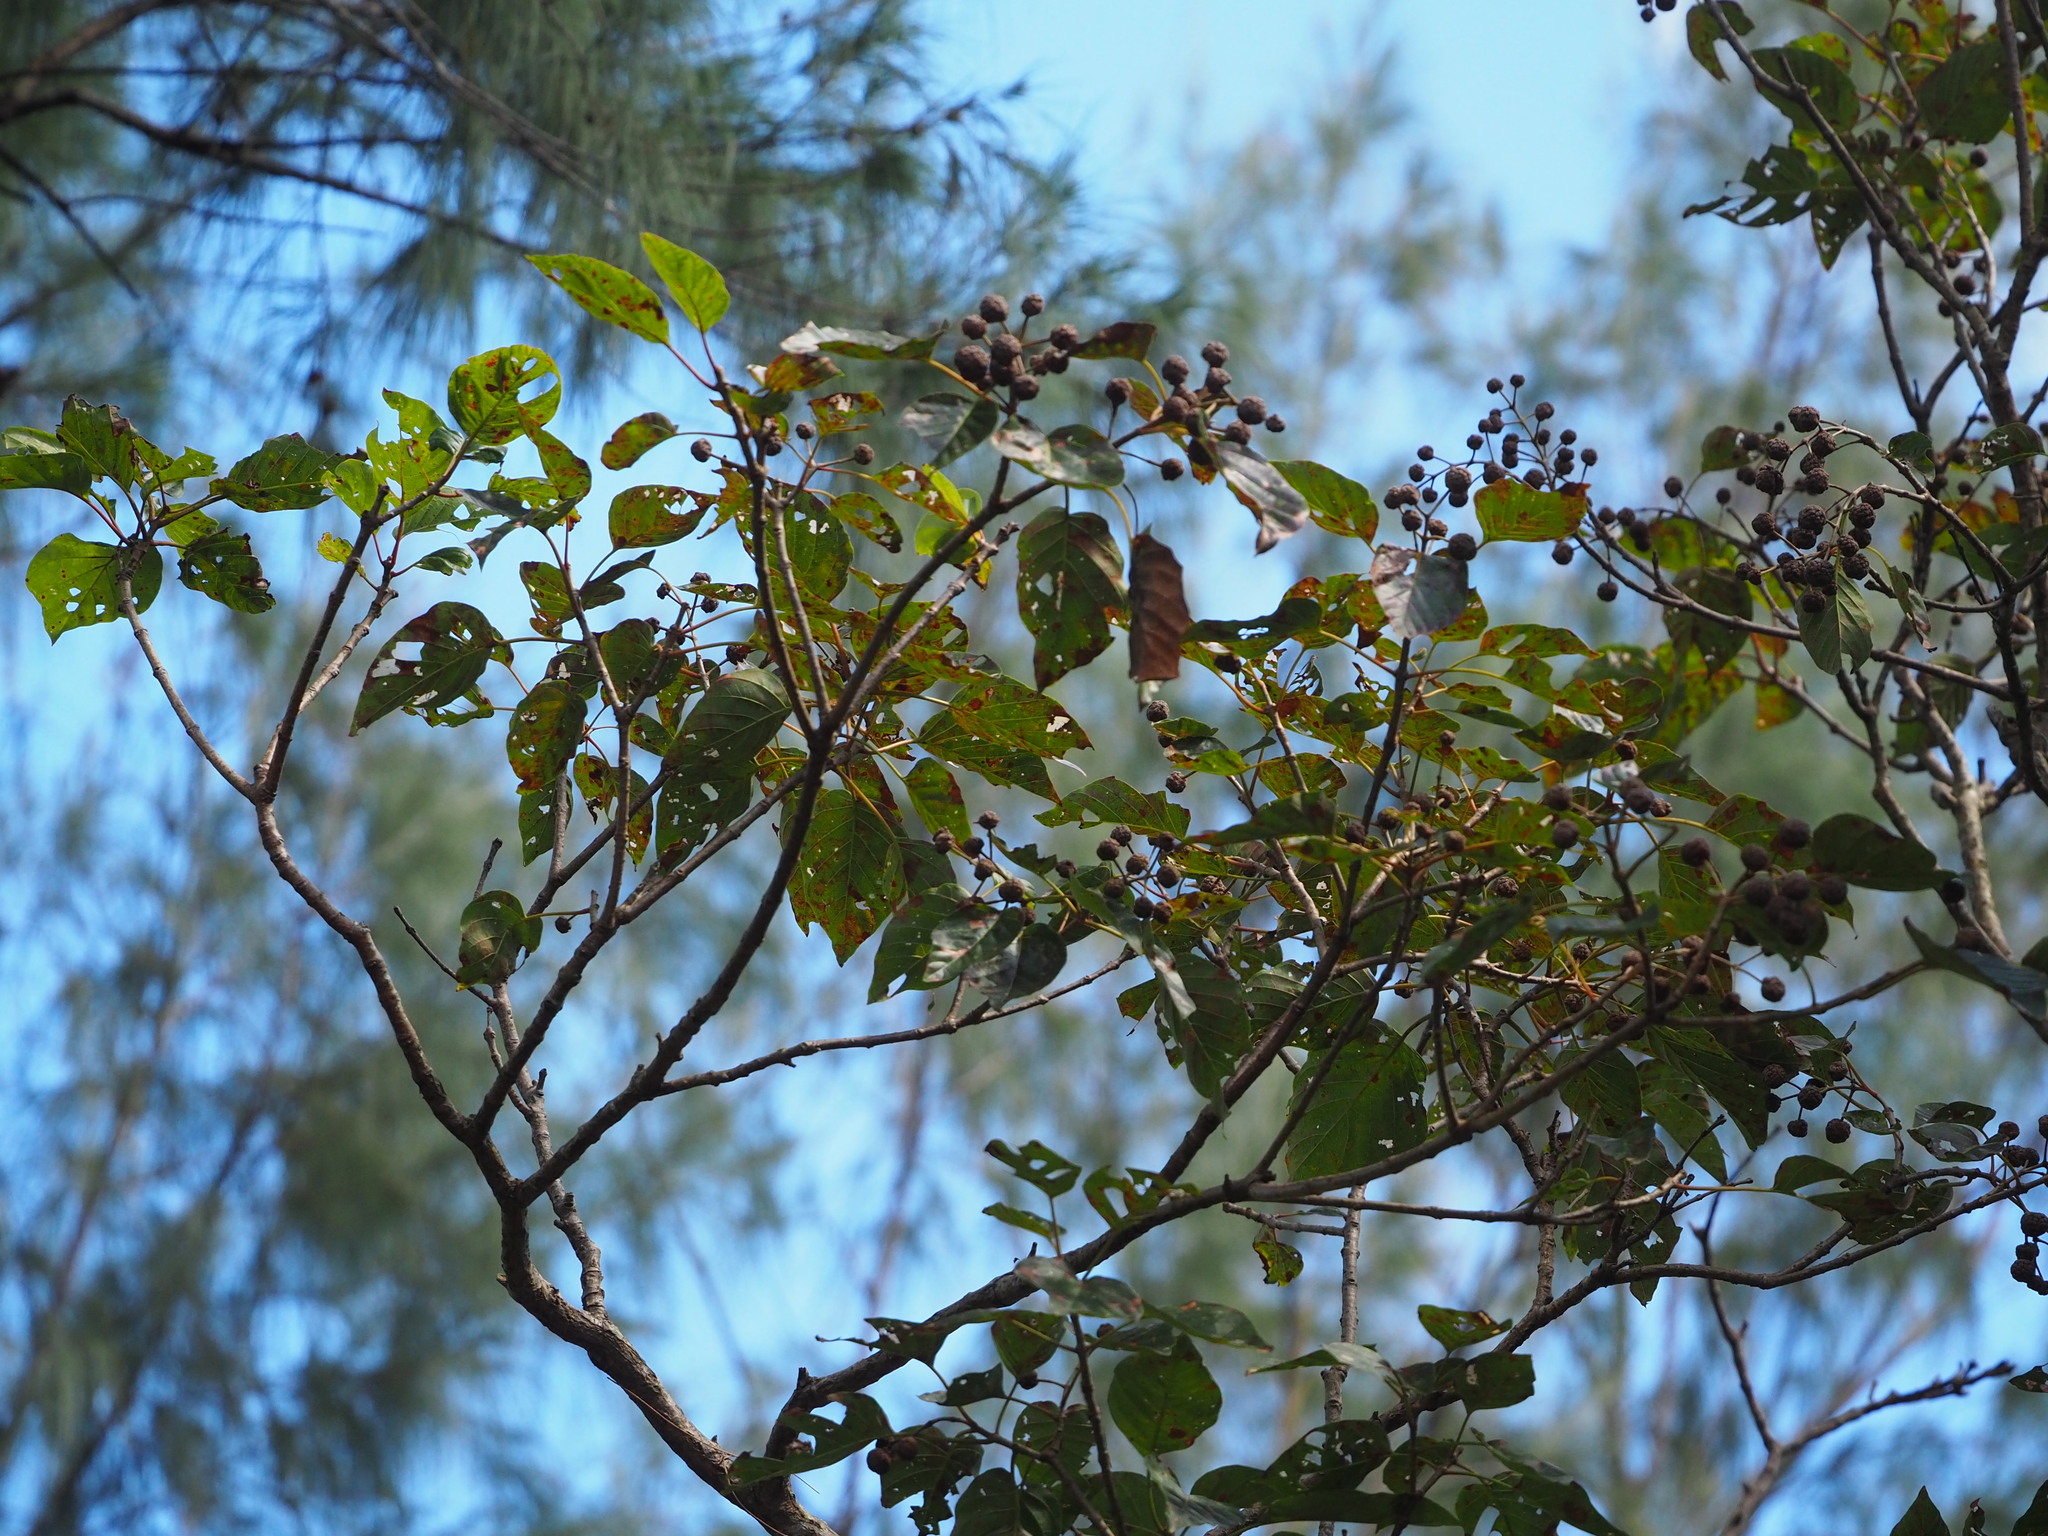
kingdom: Plantae
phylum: Tracheophyta
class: Magnoliopsida
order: Gentianales
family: Rubiaceae
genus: Adina
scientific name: Adina racemosa
